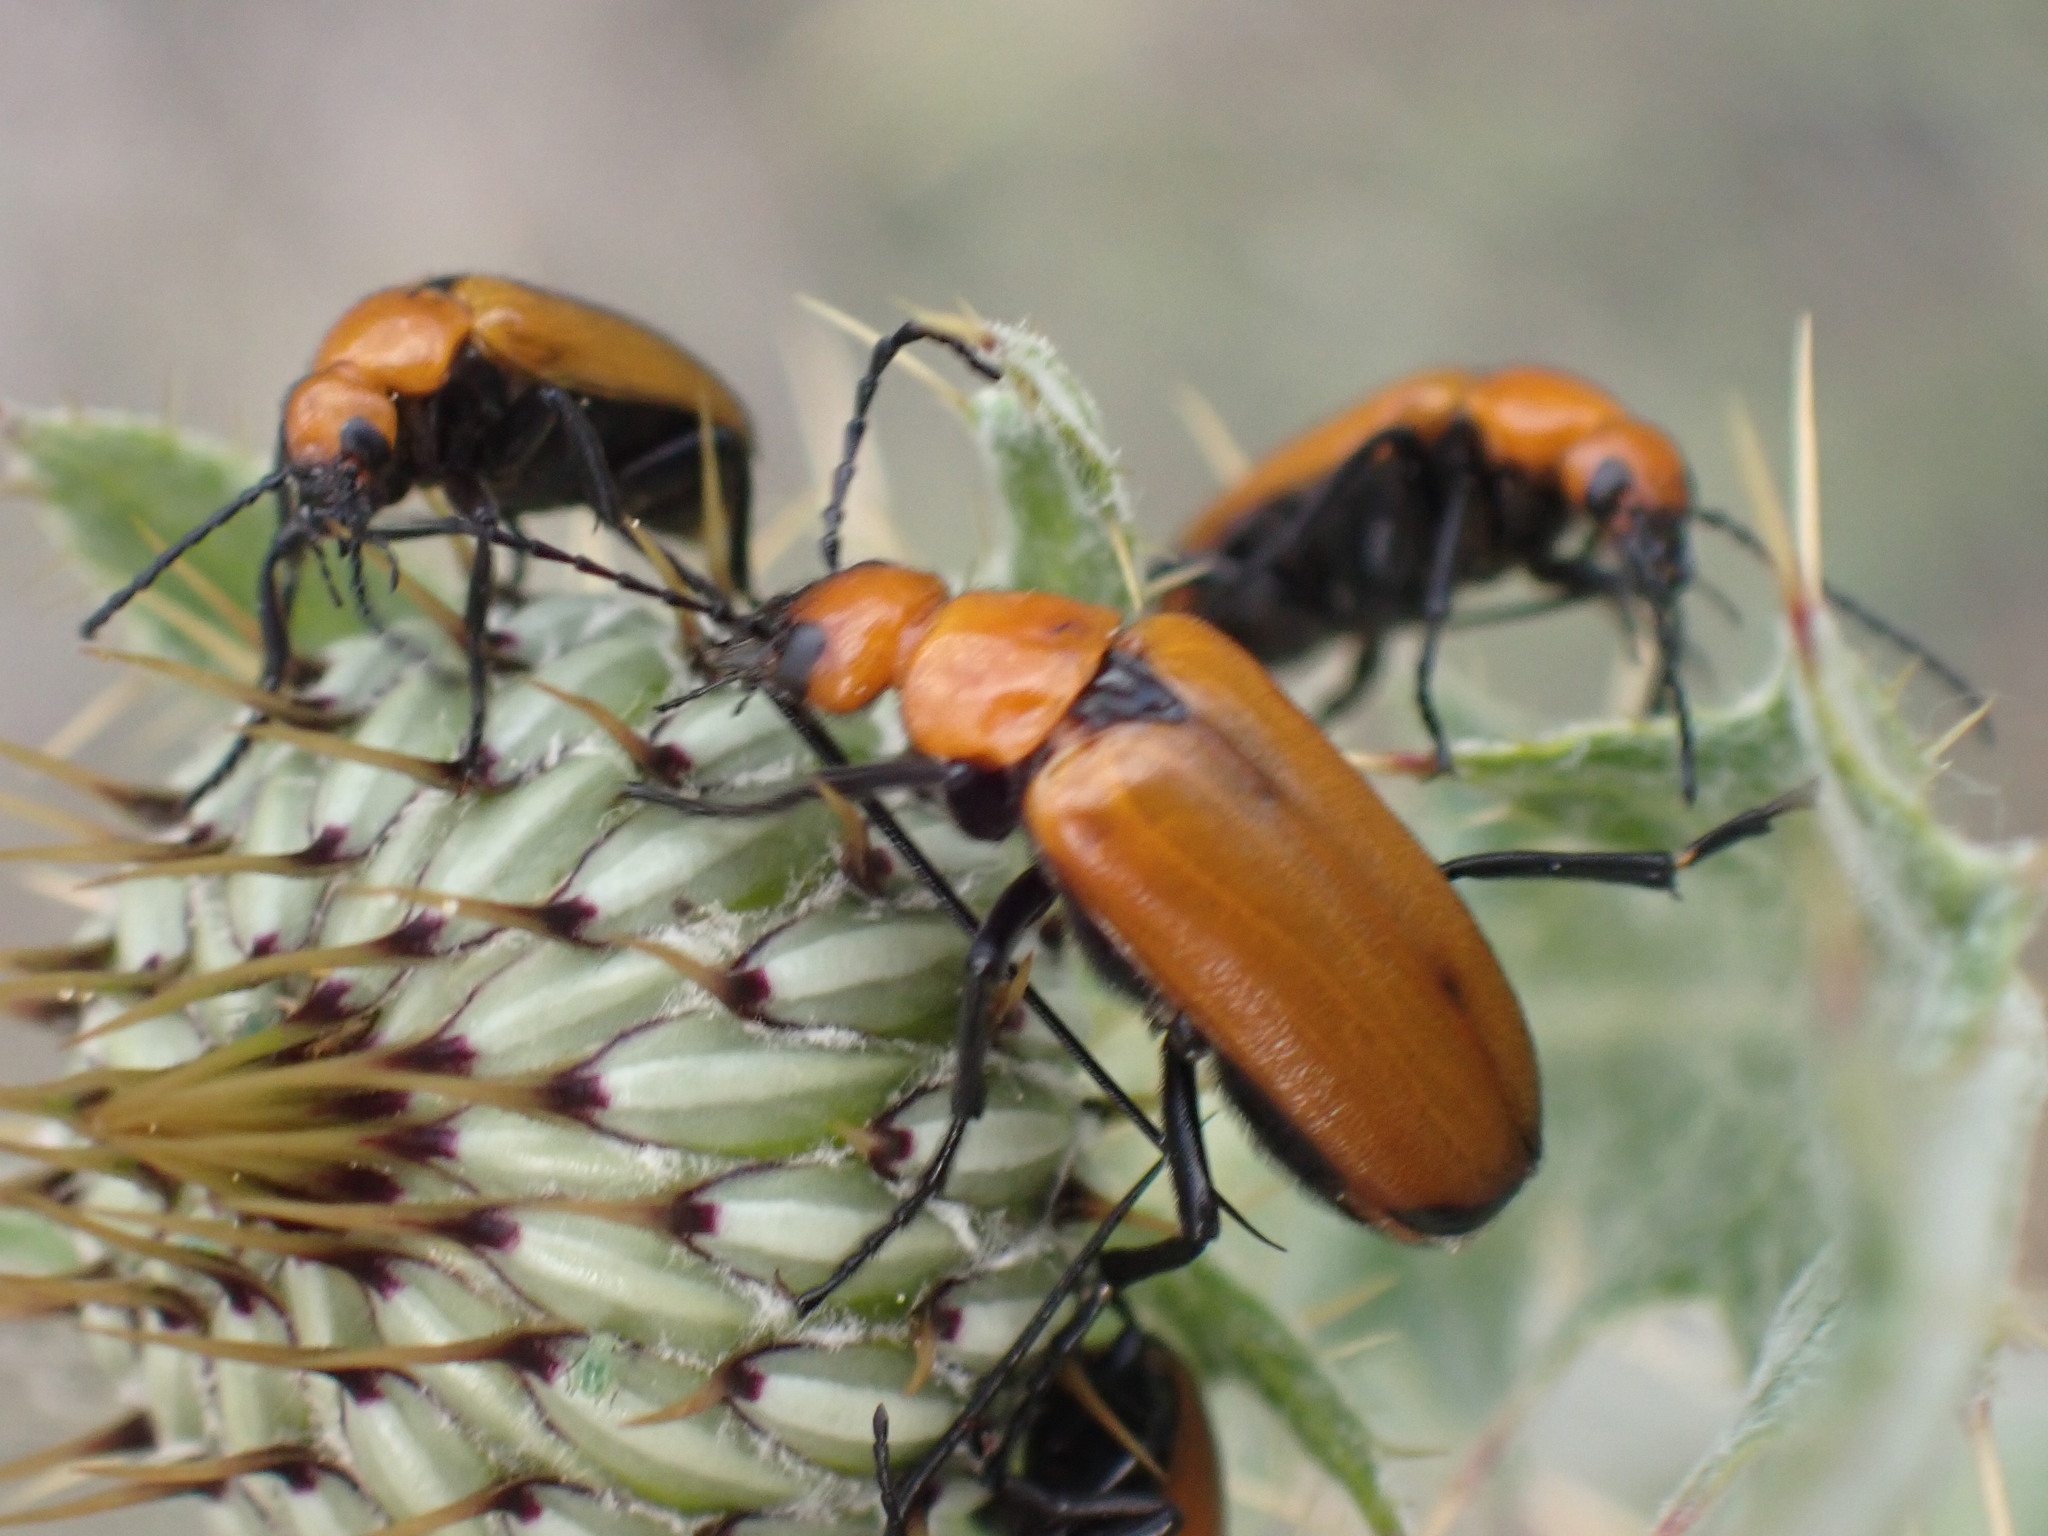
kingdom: Animalia
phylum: Arthropoda
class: Insecta
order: Coleoptera
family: Meloidae
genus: Nemognatha
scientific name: Nemognatha lutea
